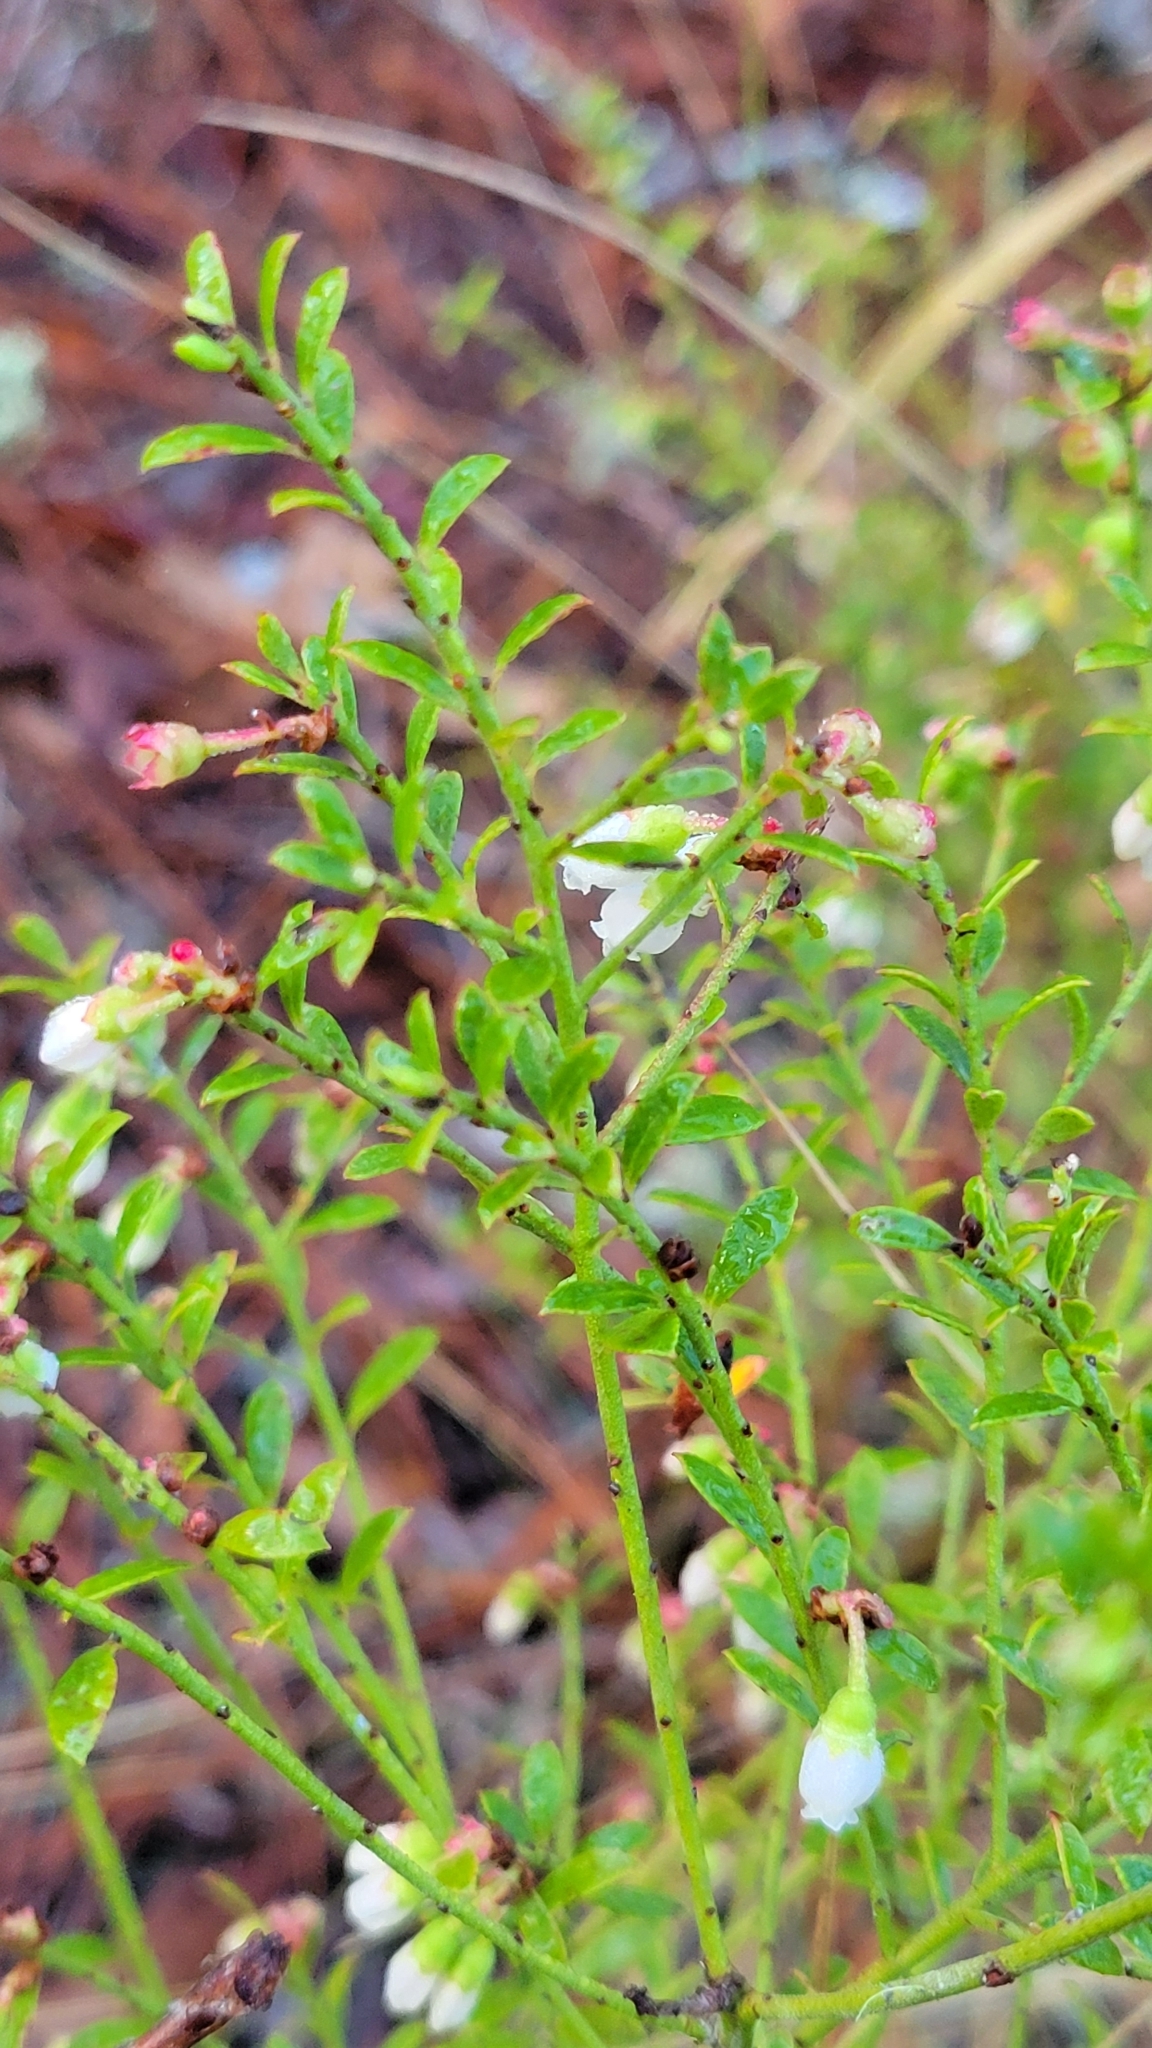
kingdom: Plantae
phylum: Tracheophyta
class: Magnoliopsida
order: Ericales
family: Ericaceae
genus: Vaccinium
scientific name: Vaccinium myrsinites
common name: Evergreen blueberry
